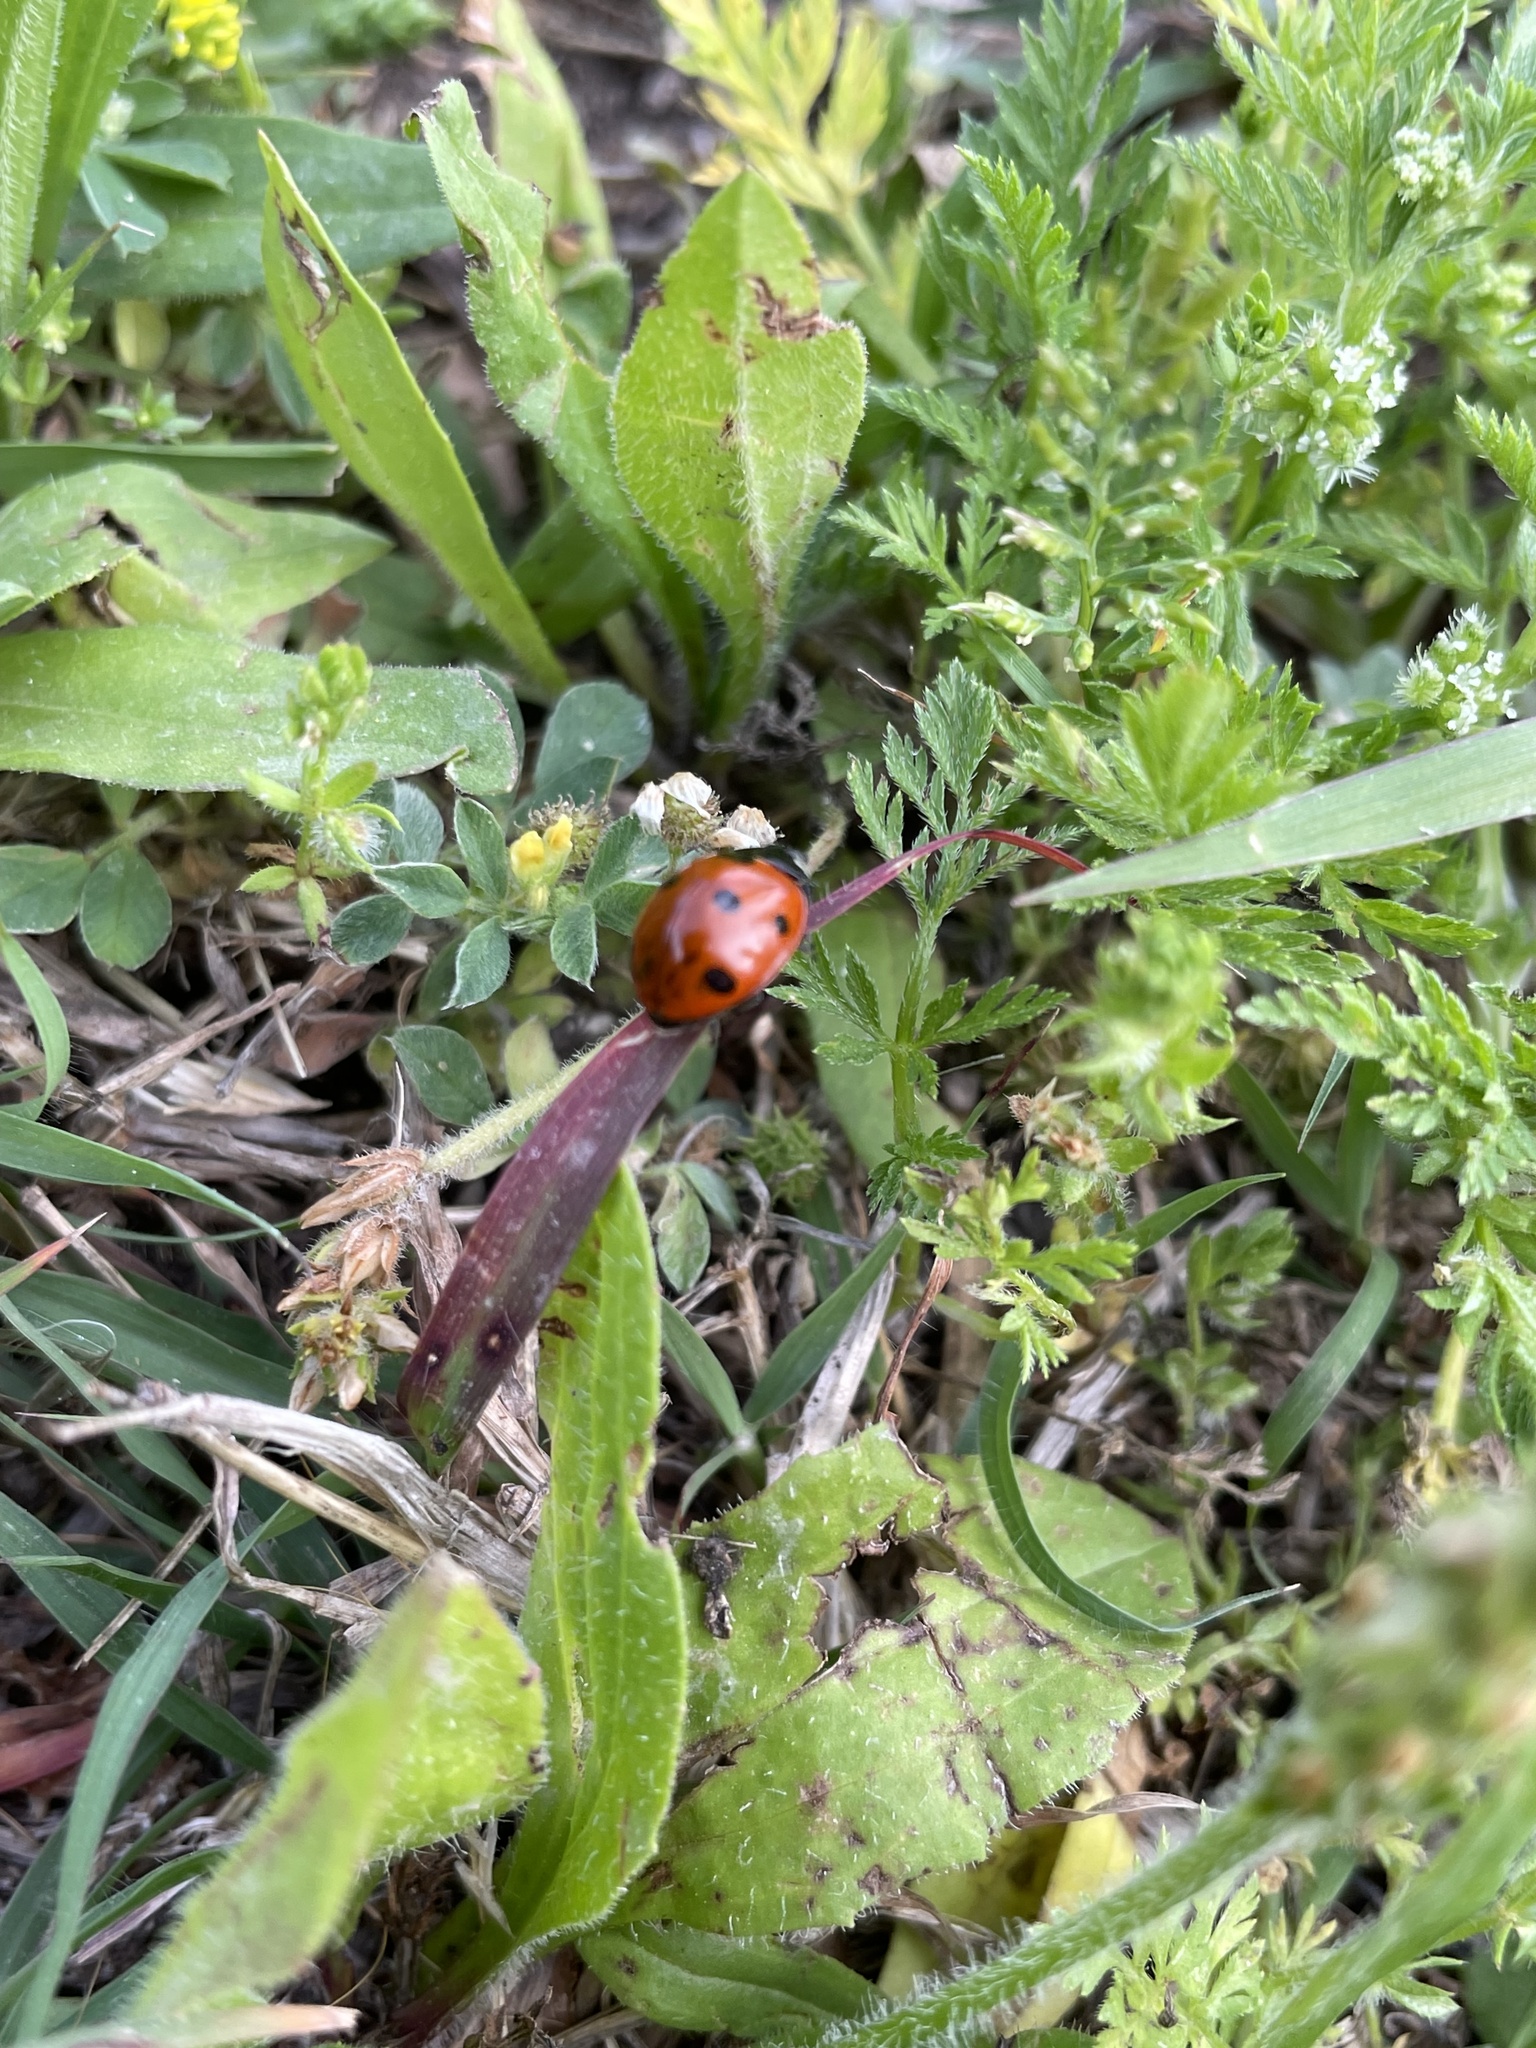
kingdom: Animalia
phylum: Arthropoda
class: Insecta
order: Coleoptera
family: Coccinellidae
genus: Coccinella
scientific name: Coccinella septempunctata
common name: Sevenspotted lady beetle
